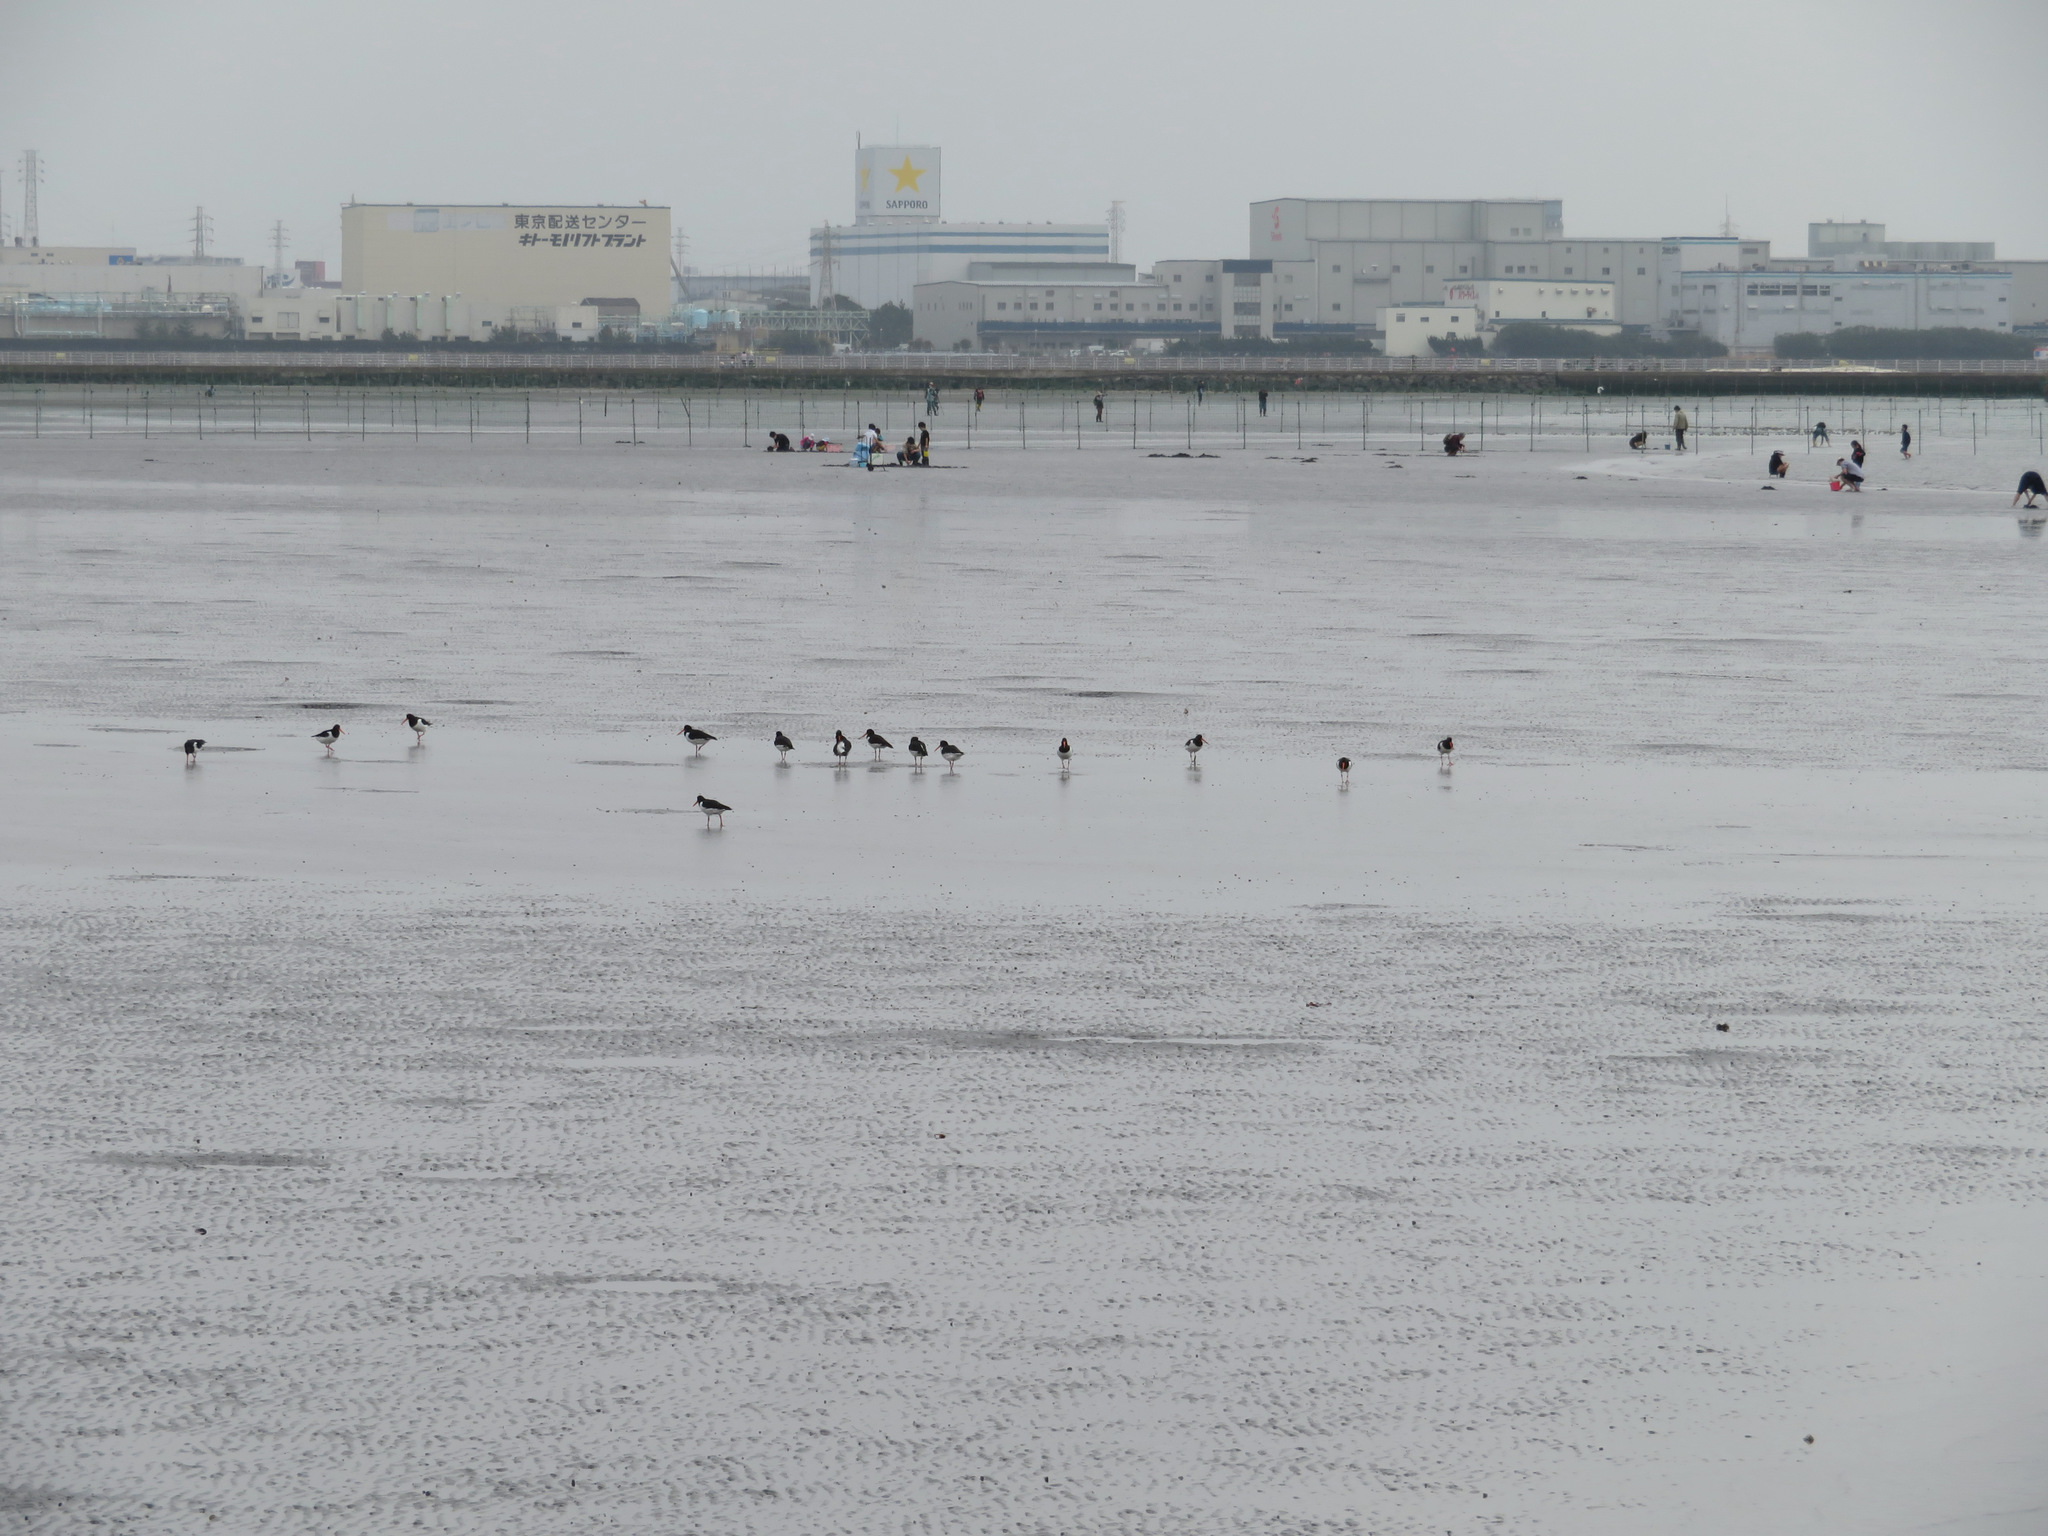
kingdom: Animalia
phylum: Chordata
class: Aves
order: Charadriiformes
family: Haematopodidae
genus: Haematopus
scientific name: Haematopus ostralegus
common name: Eurasian oystercatcher
